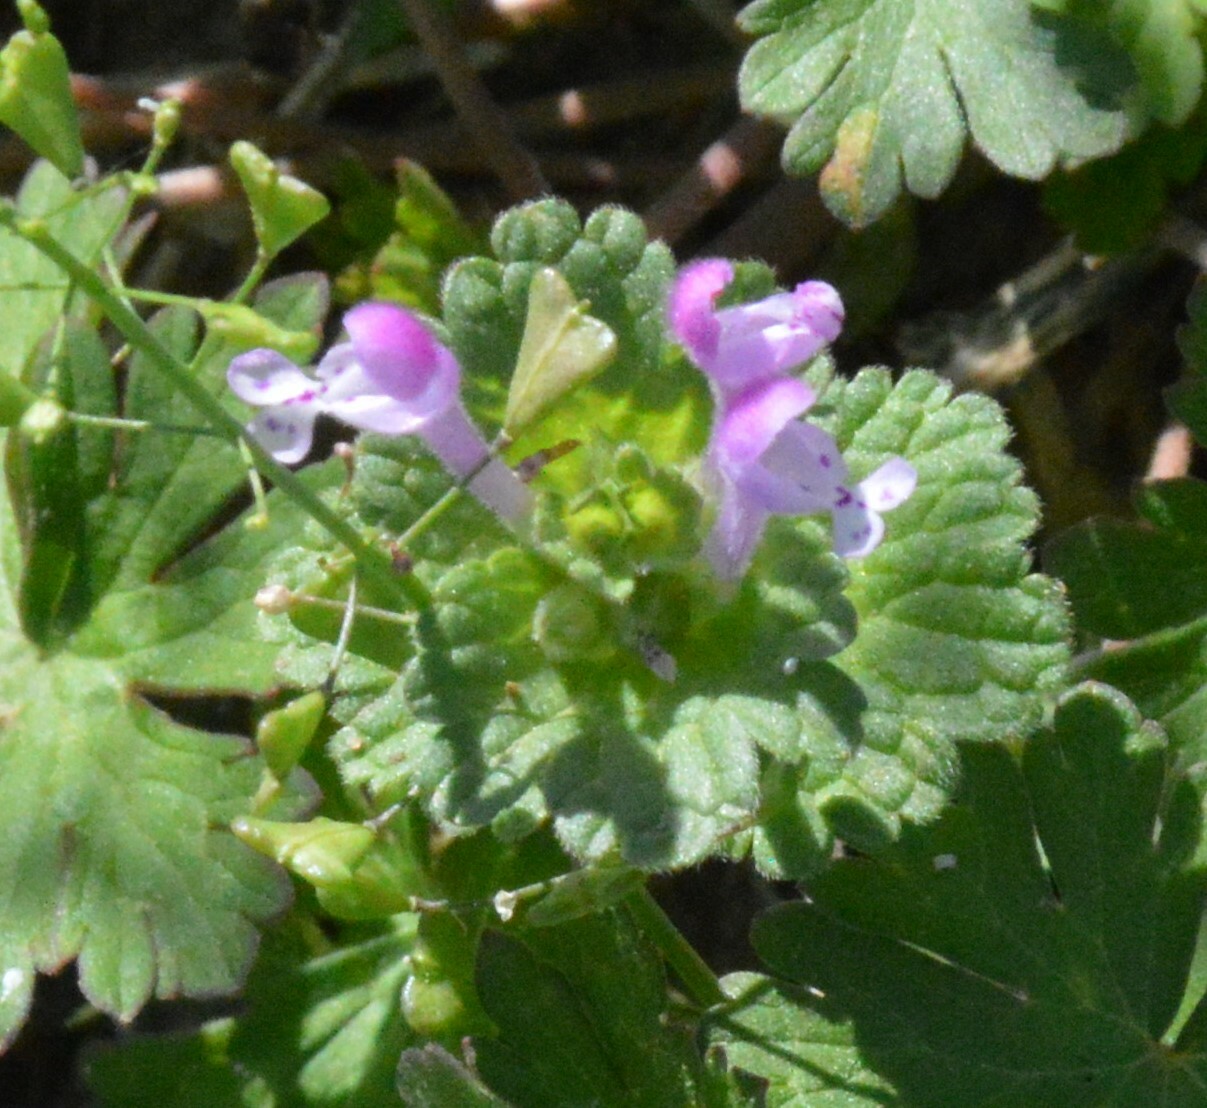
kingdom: Plantae
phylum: Tracheophyta
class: Magnoliopsida
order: Lamiales
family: Lamiaceae
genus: Lamium
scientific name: Lamium amplexicaule
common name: Henbit dead-nettle
